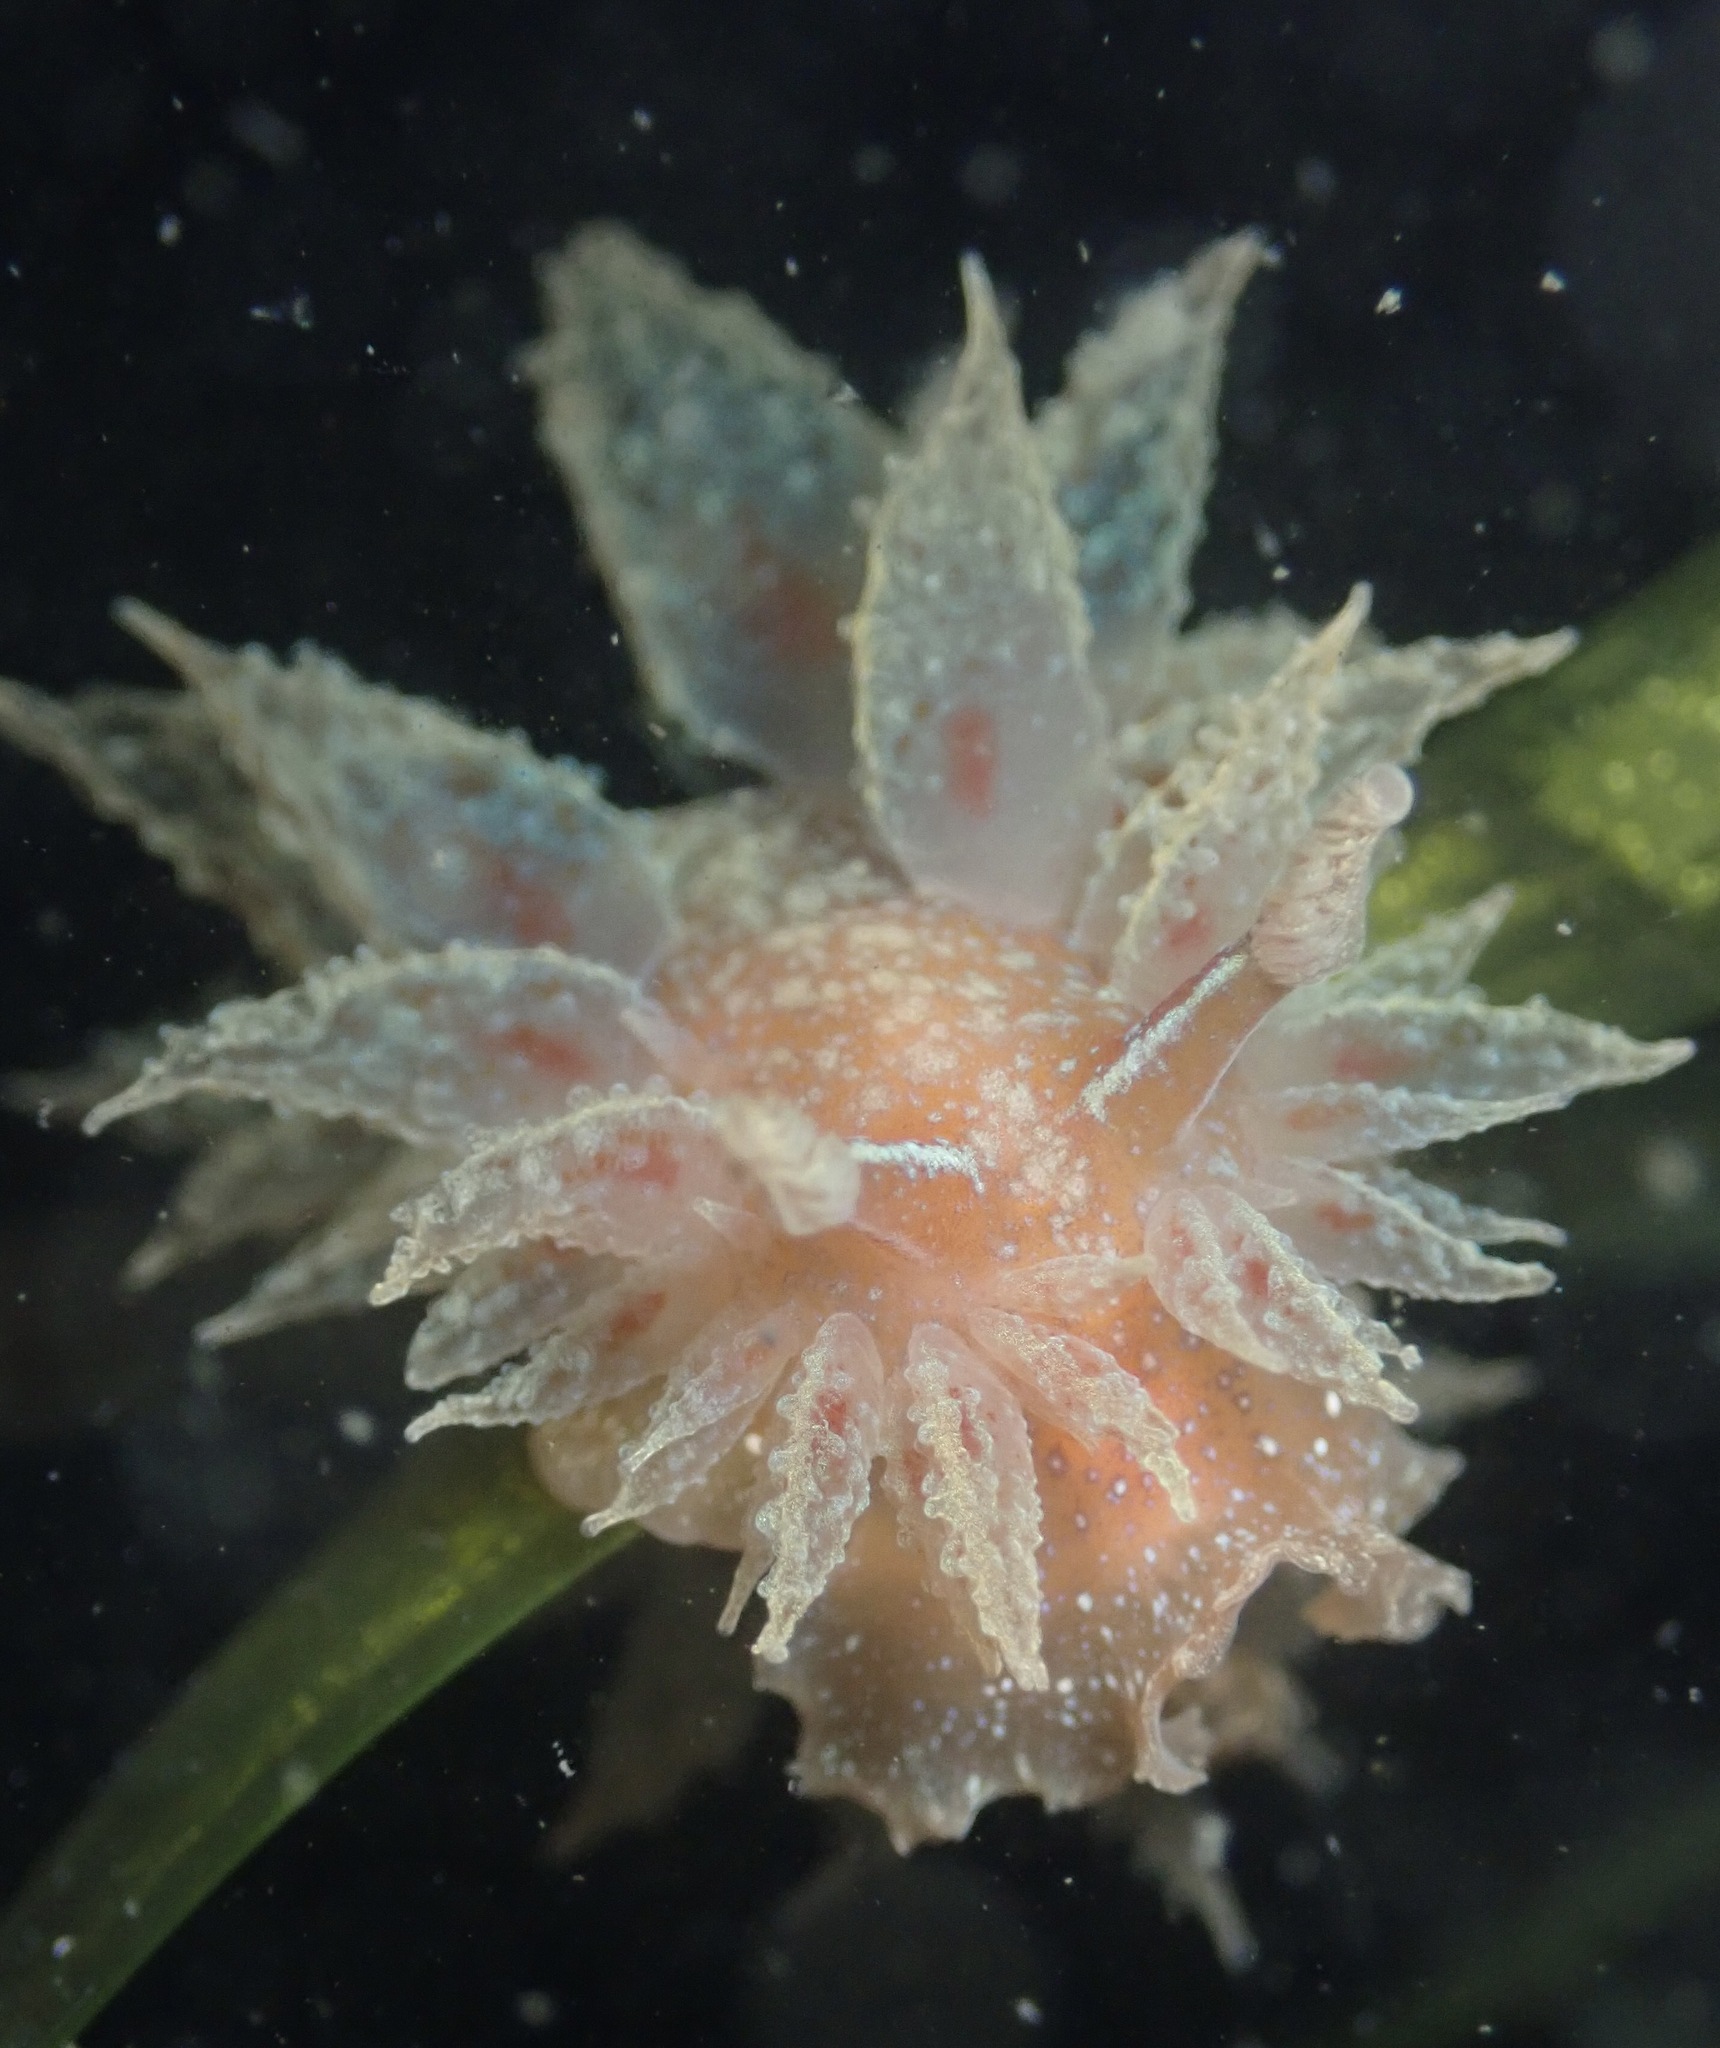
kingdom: Animalia
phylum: Mollusca
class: Gastropoda
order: Nudibranchia
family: Dironidae
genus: Dirona
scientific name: Dirona picta
